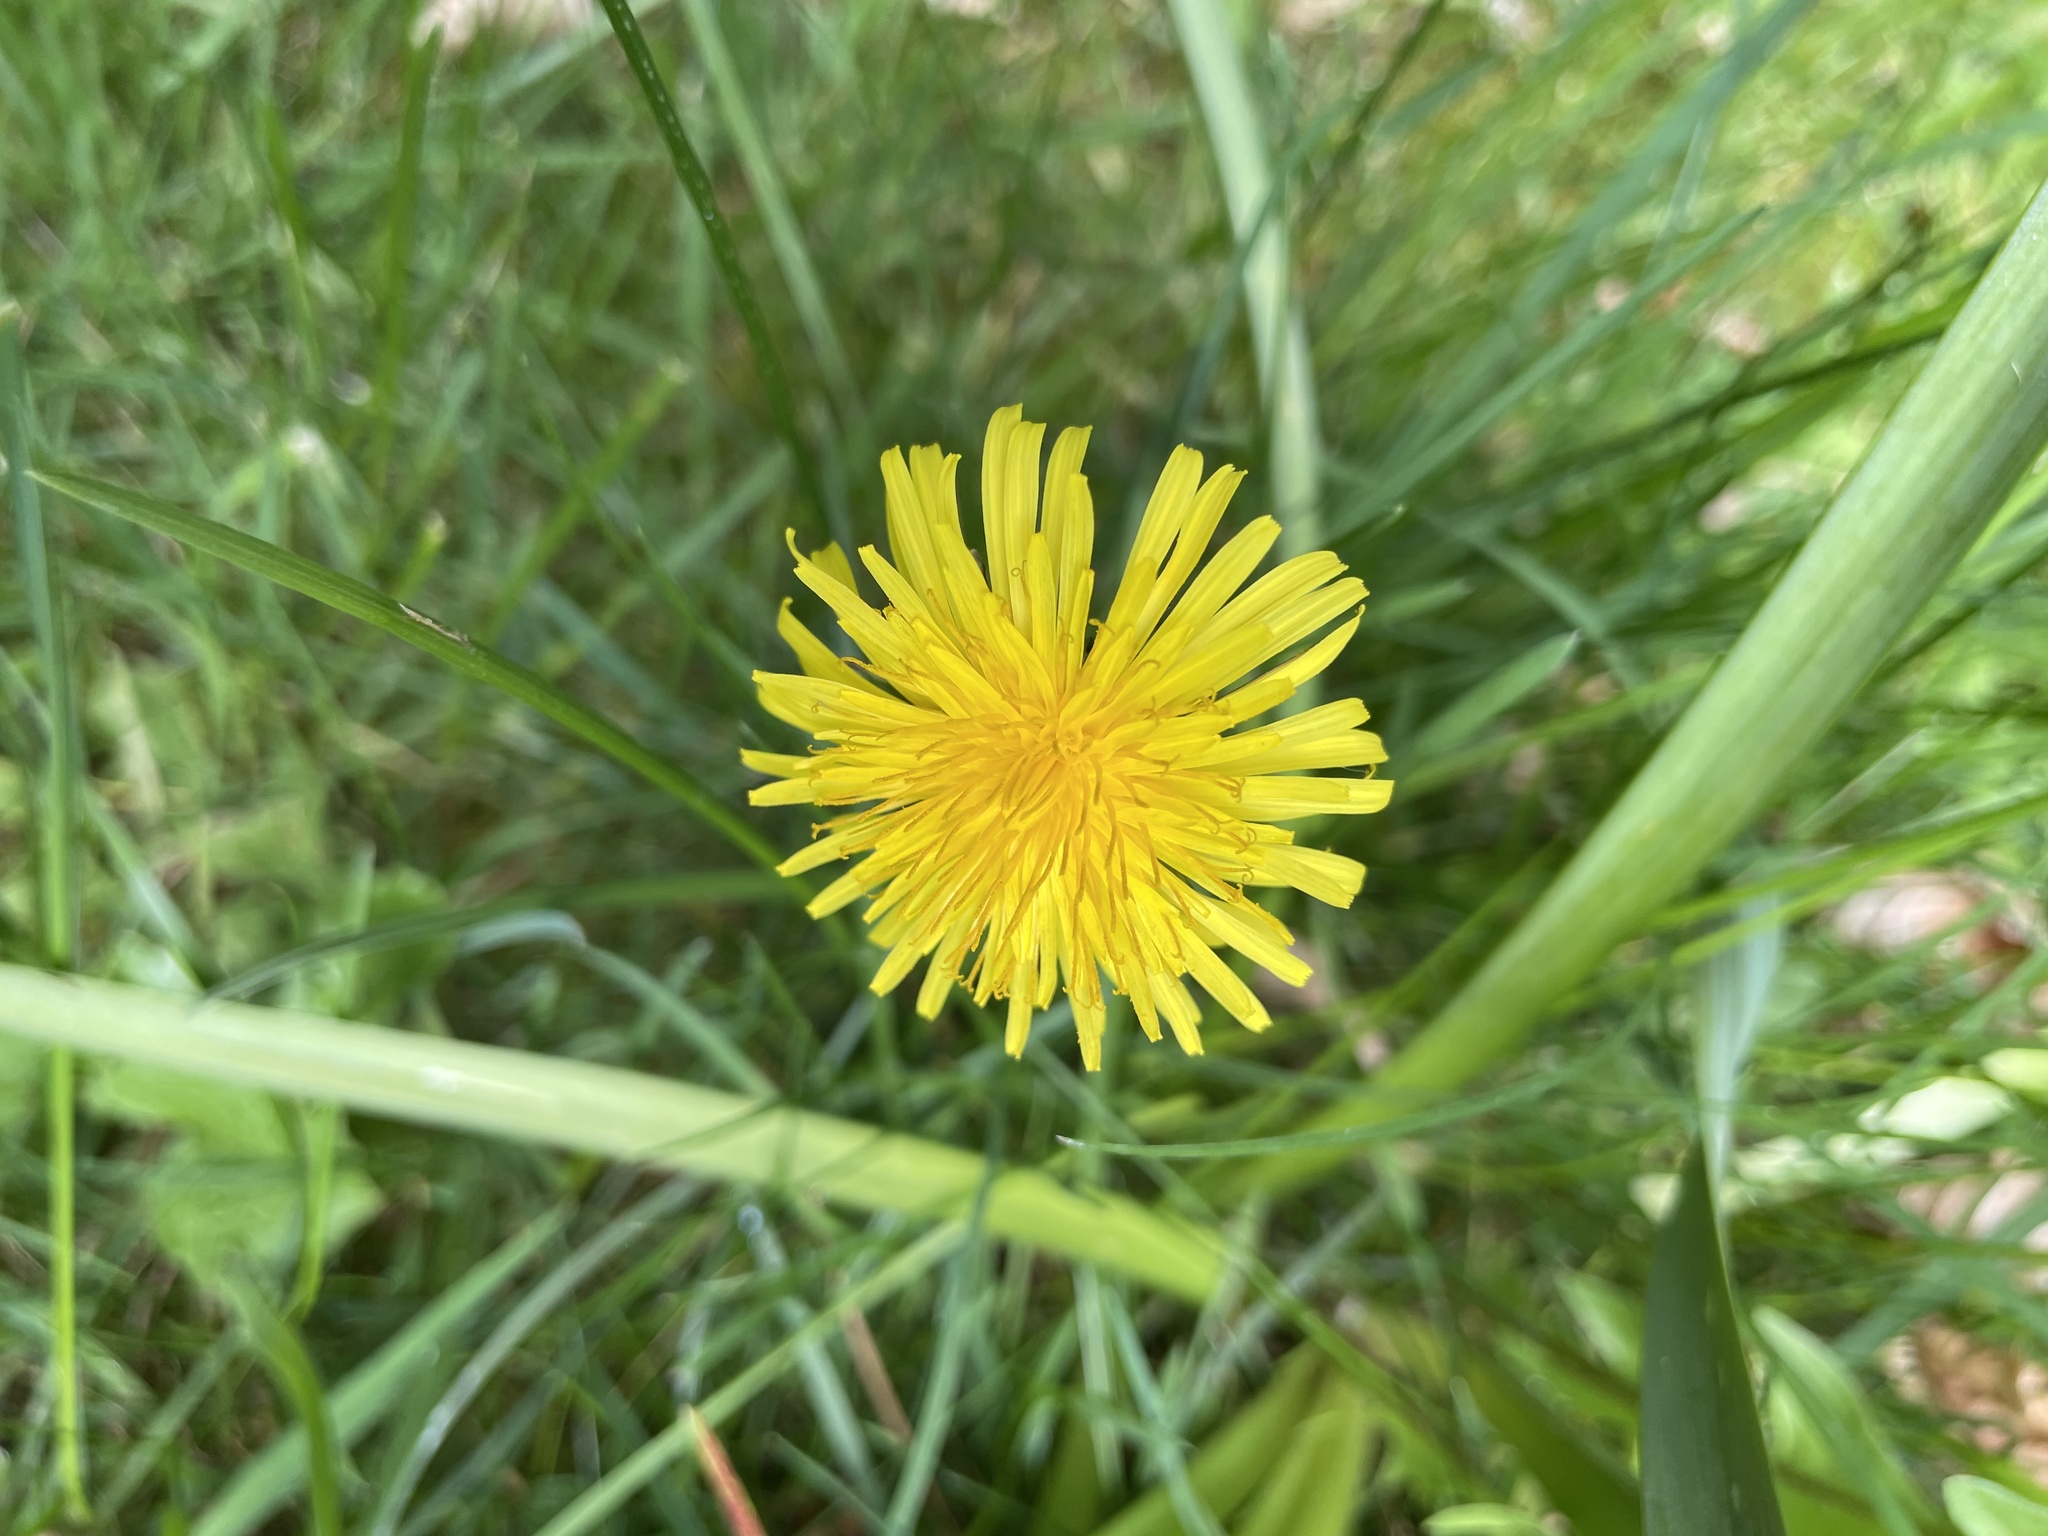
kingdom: Plantae
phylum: Tracheophyta
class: Magnoliopsida
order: Asterales
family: Asteraceae
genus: Taraxacum
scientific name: Taraxacum officinale
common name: Common dandelion
